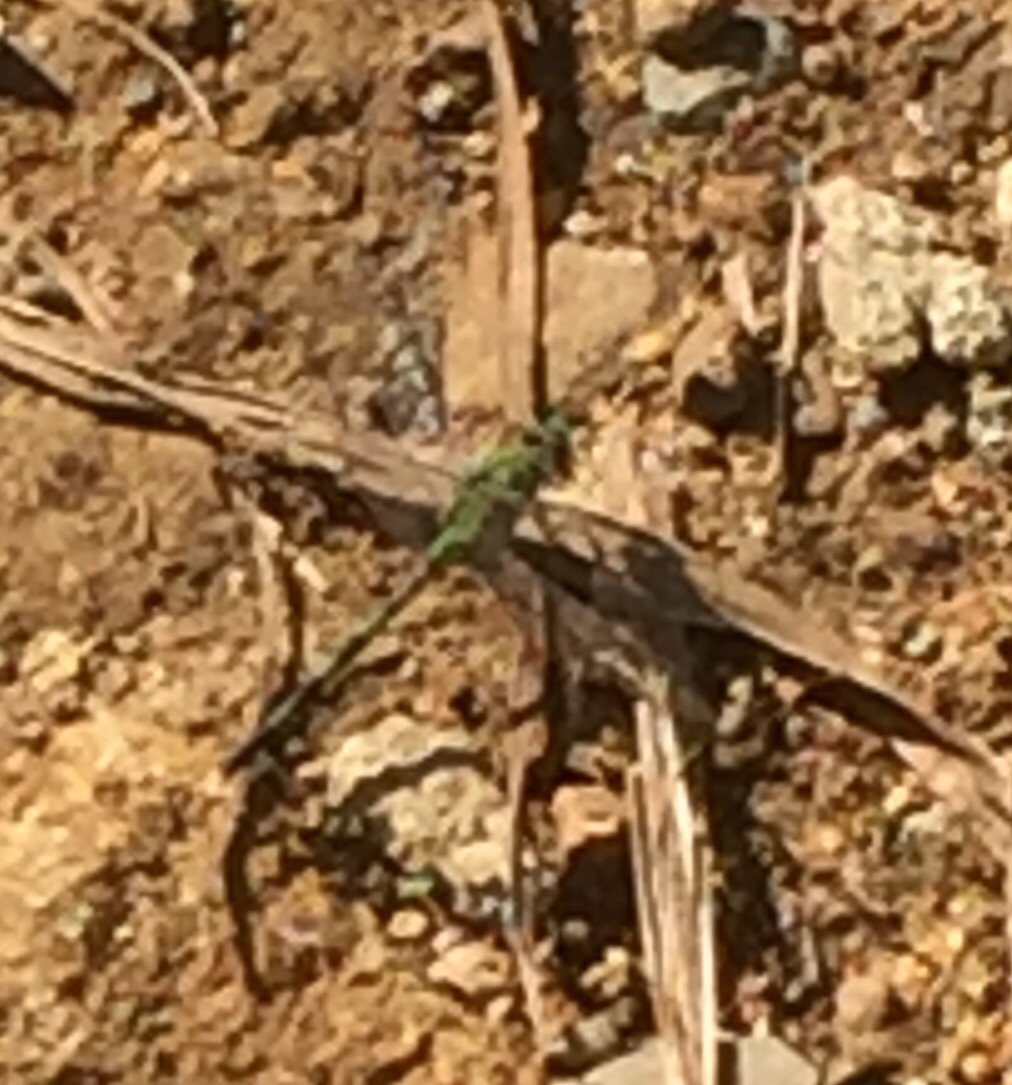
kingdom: Animalia
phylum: Arthropoda
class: Insecta
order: Odonata
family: Libellulidae
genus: Erythemis
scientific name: Erythemis vesiculosa
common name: Great pondhawk
